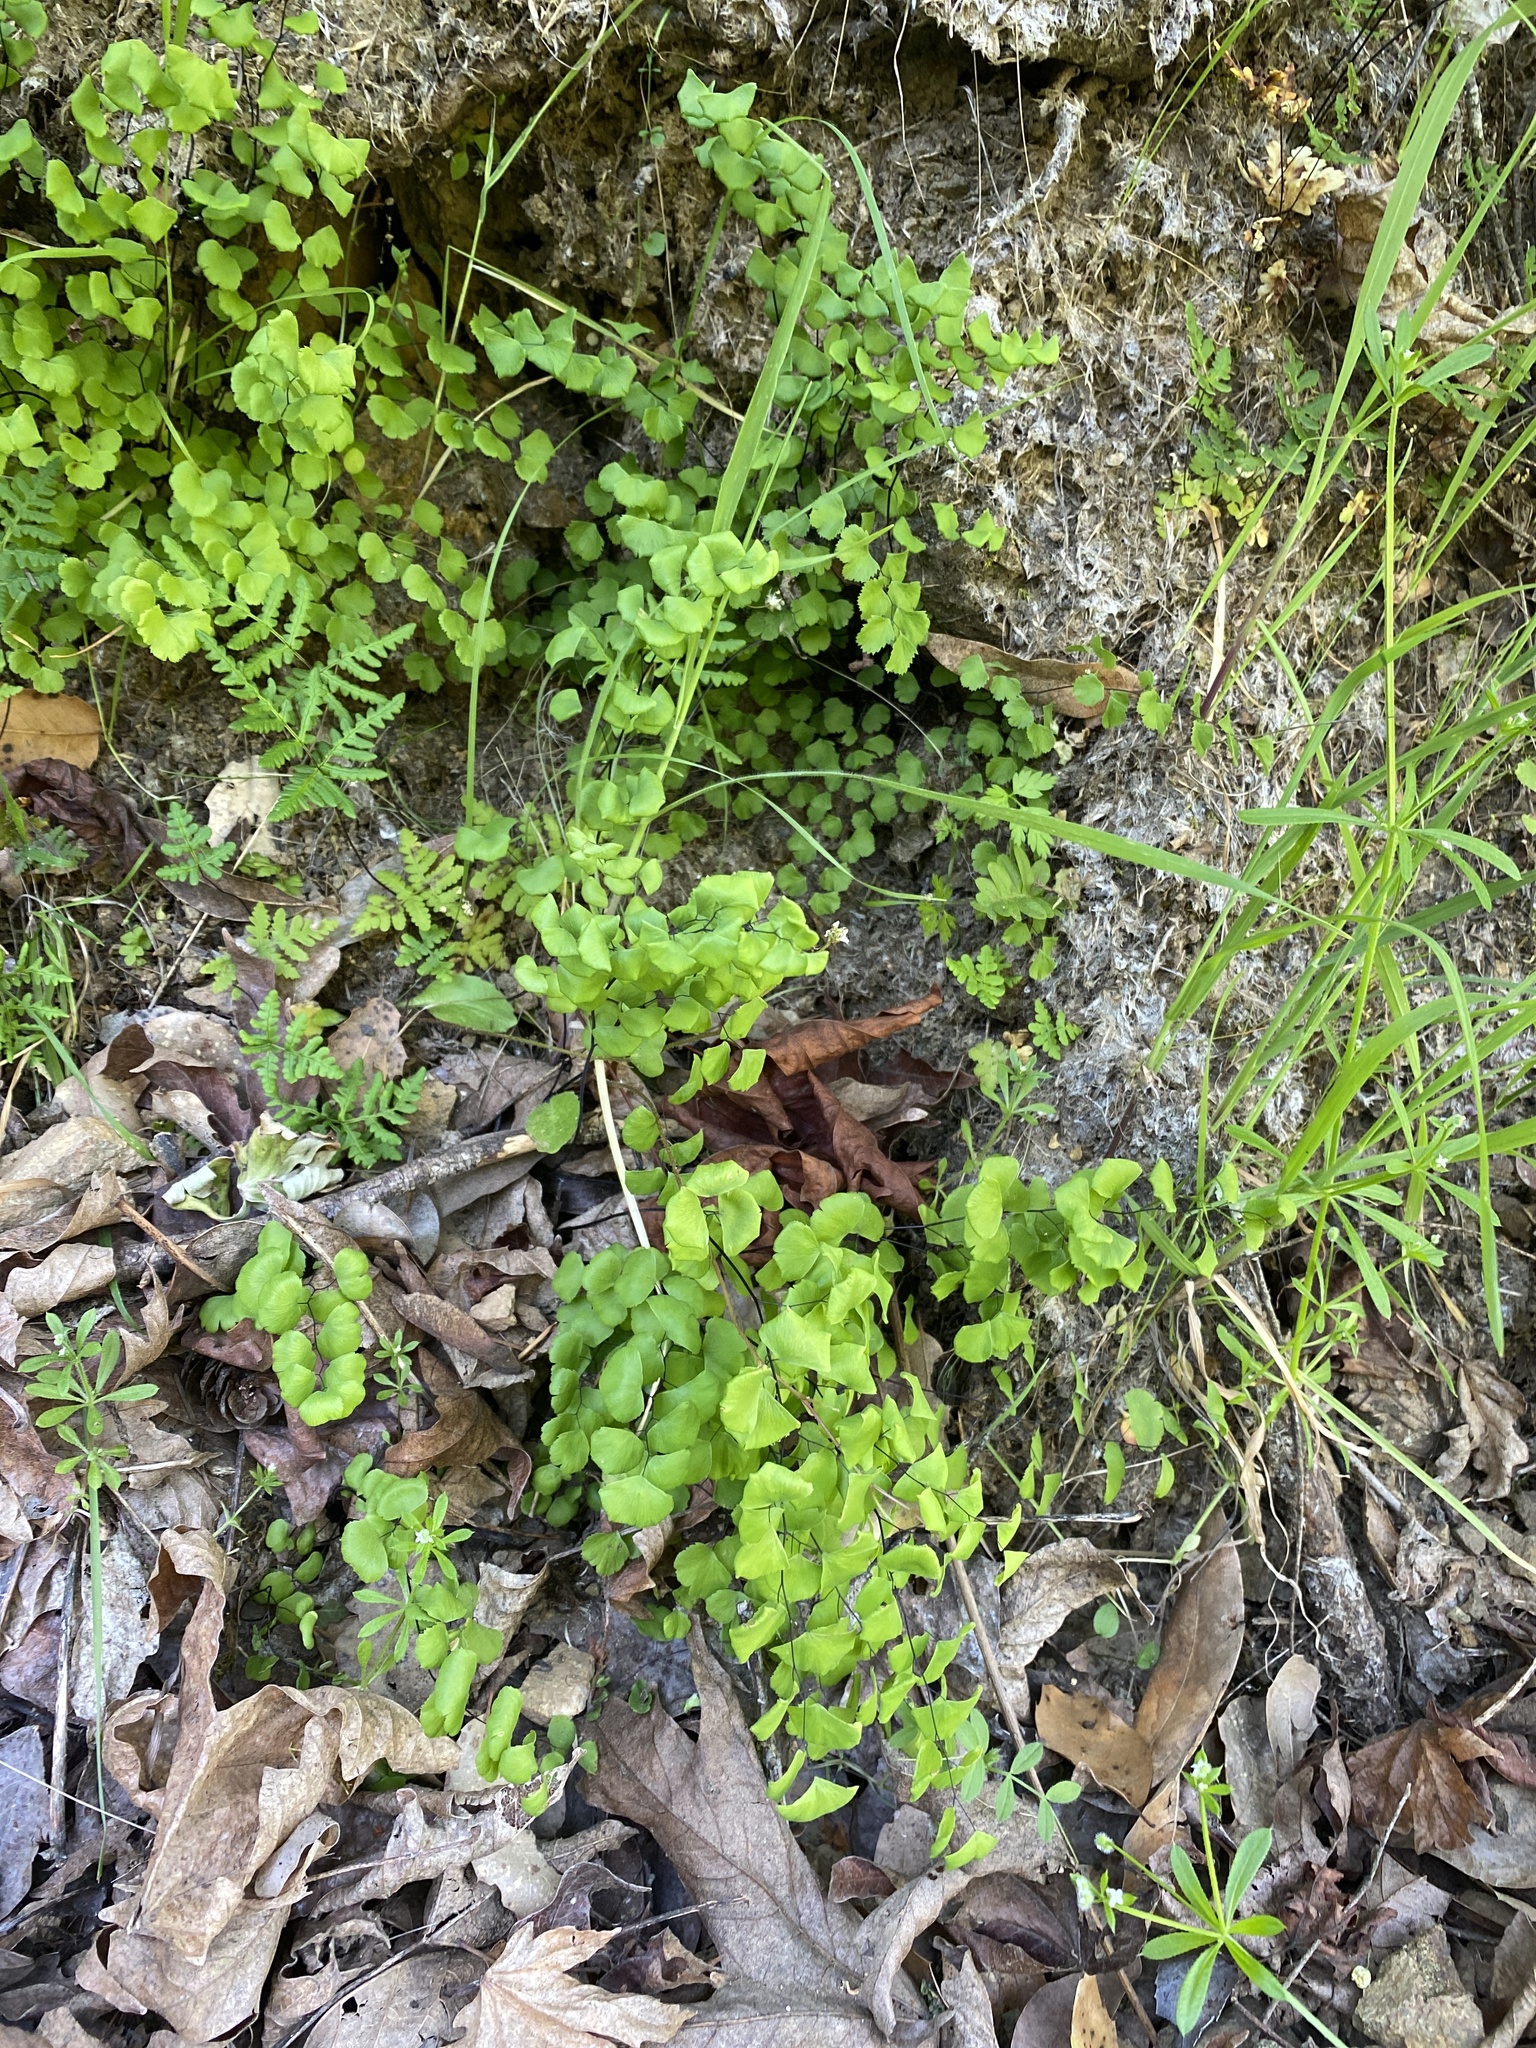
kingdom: Plantae
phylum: Tracheophyta
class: Polypodiopsida
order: Polypodiales
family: Pteridaceae
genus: Adiantum
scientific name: Adiantum jordanii
